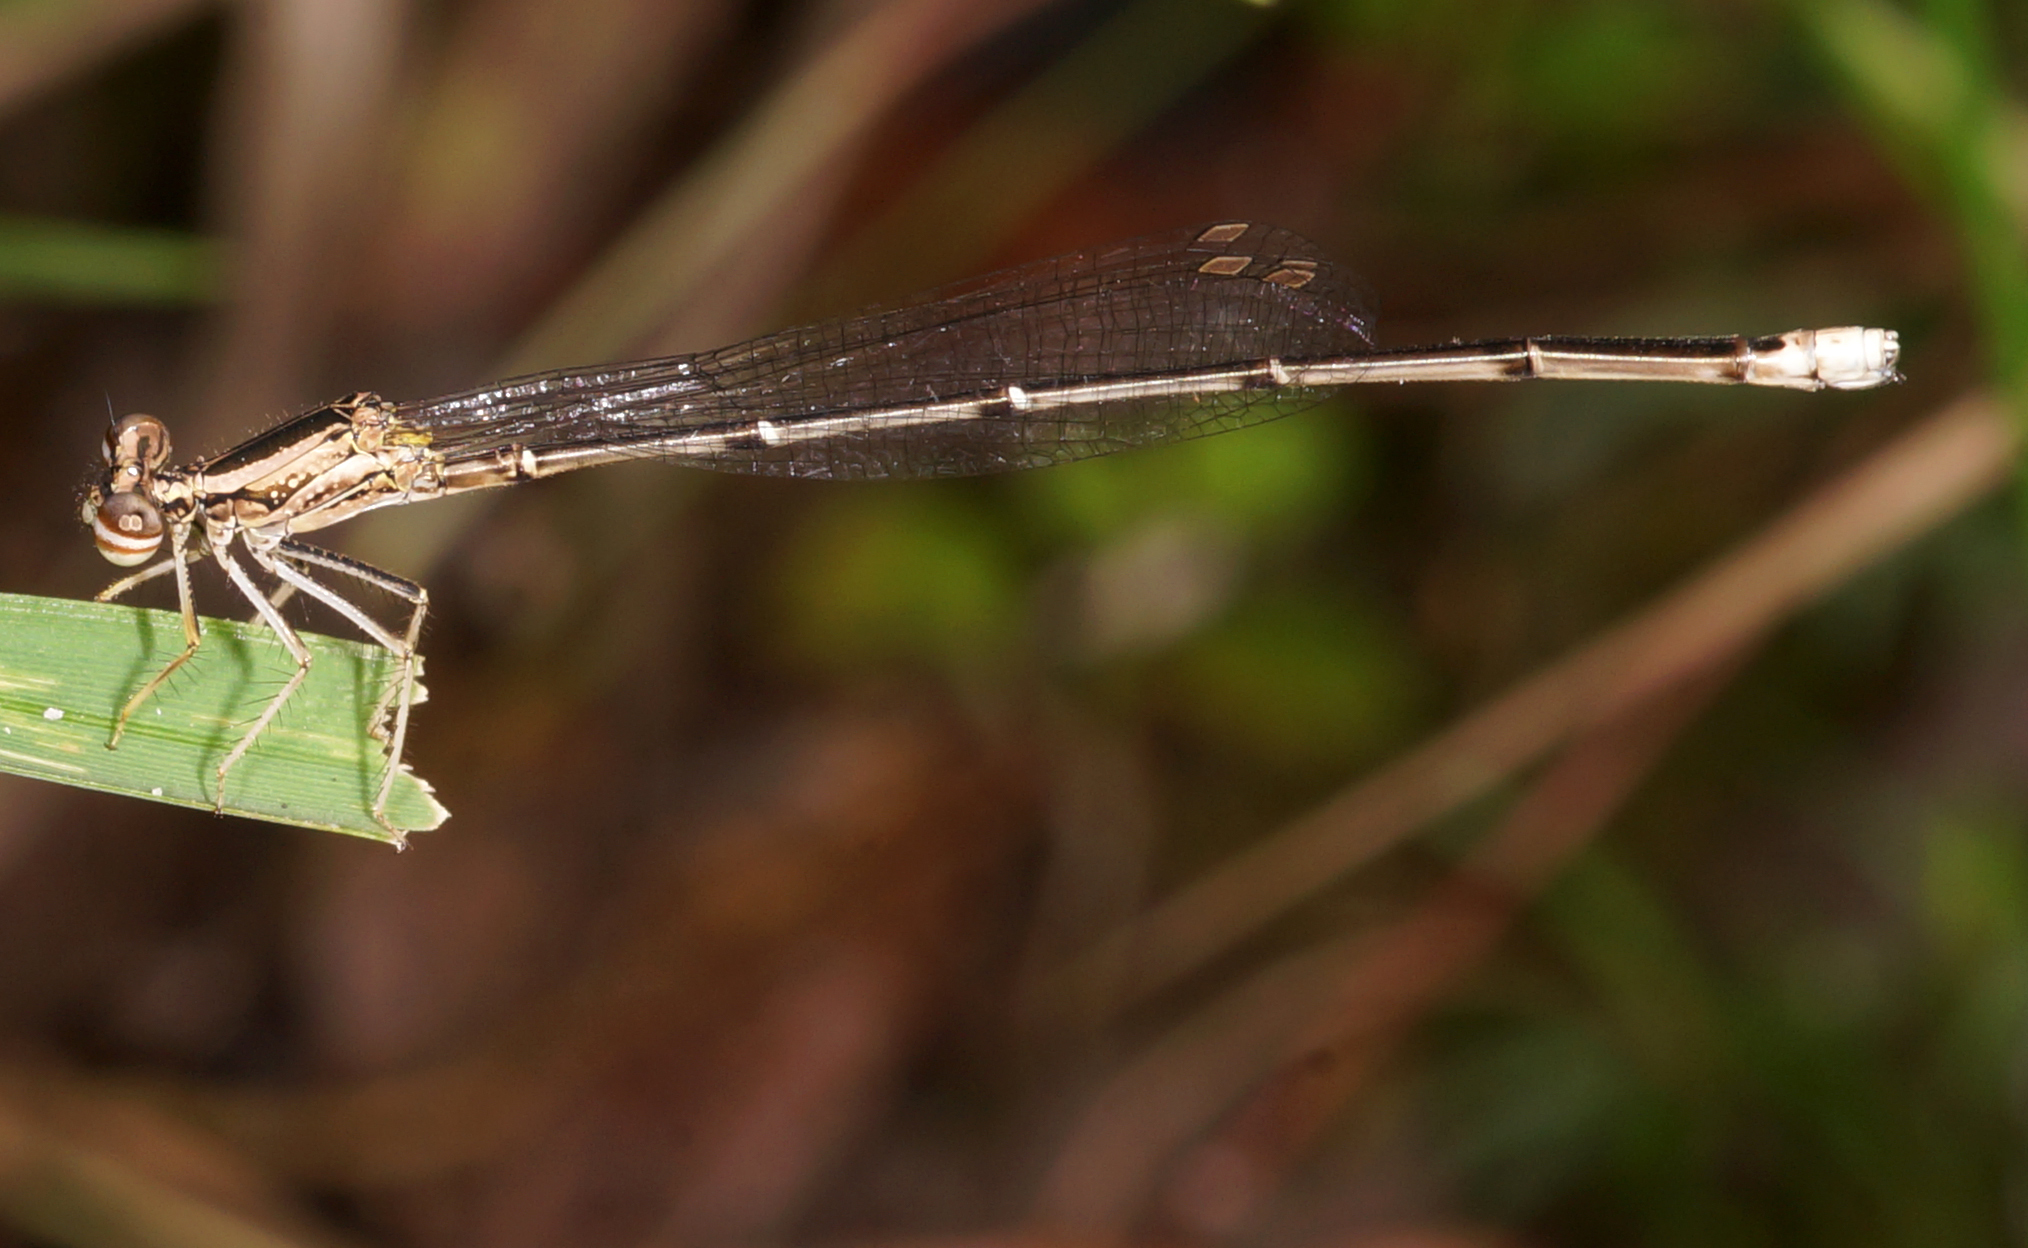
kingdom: Animalia
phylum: Arthropoda
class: Insecta
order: Odonata
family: Platycnemididae
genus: Copera
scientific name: Copera marginipes
